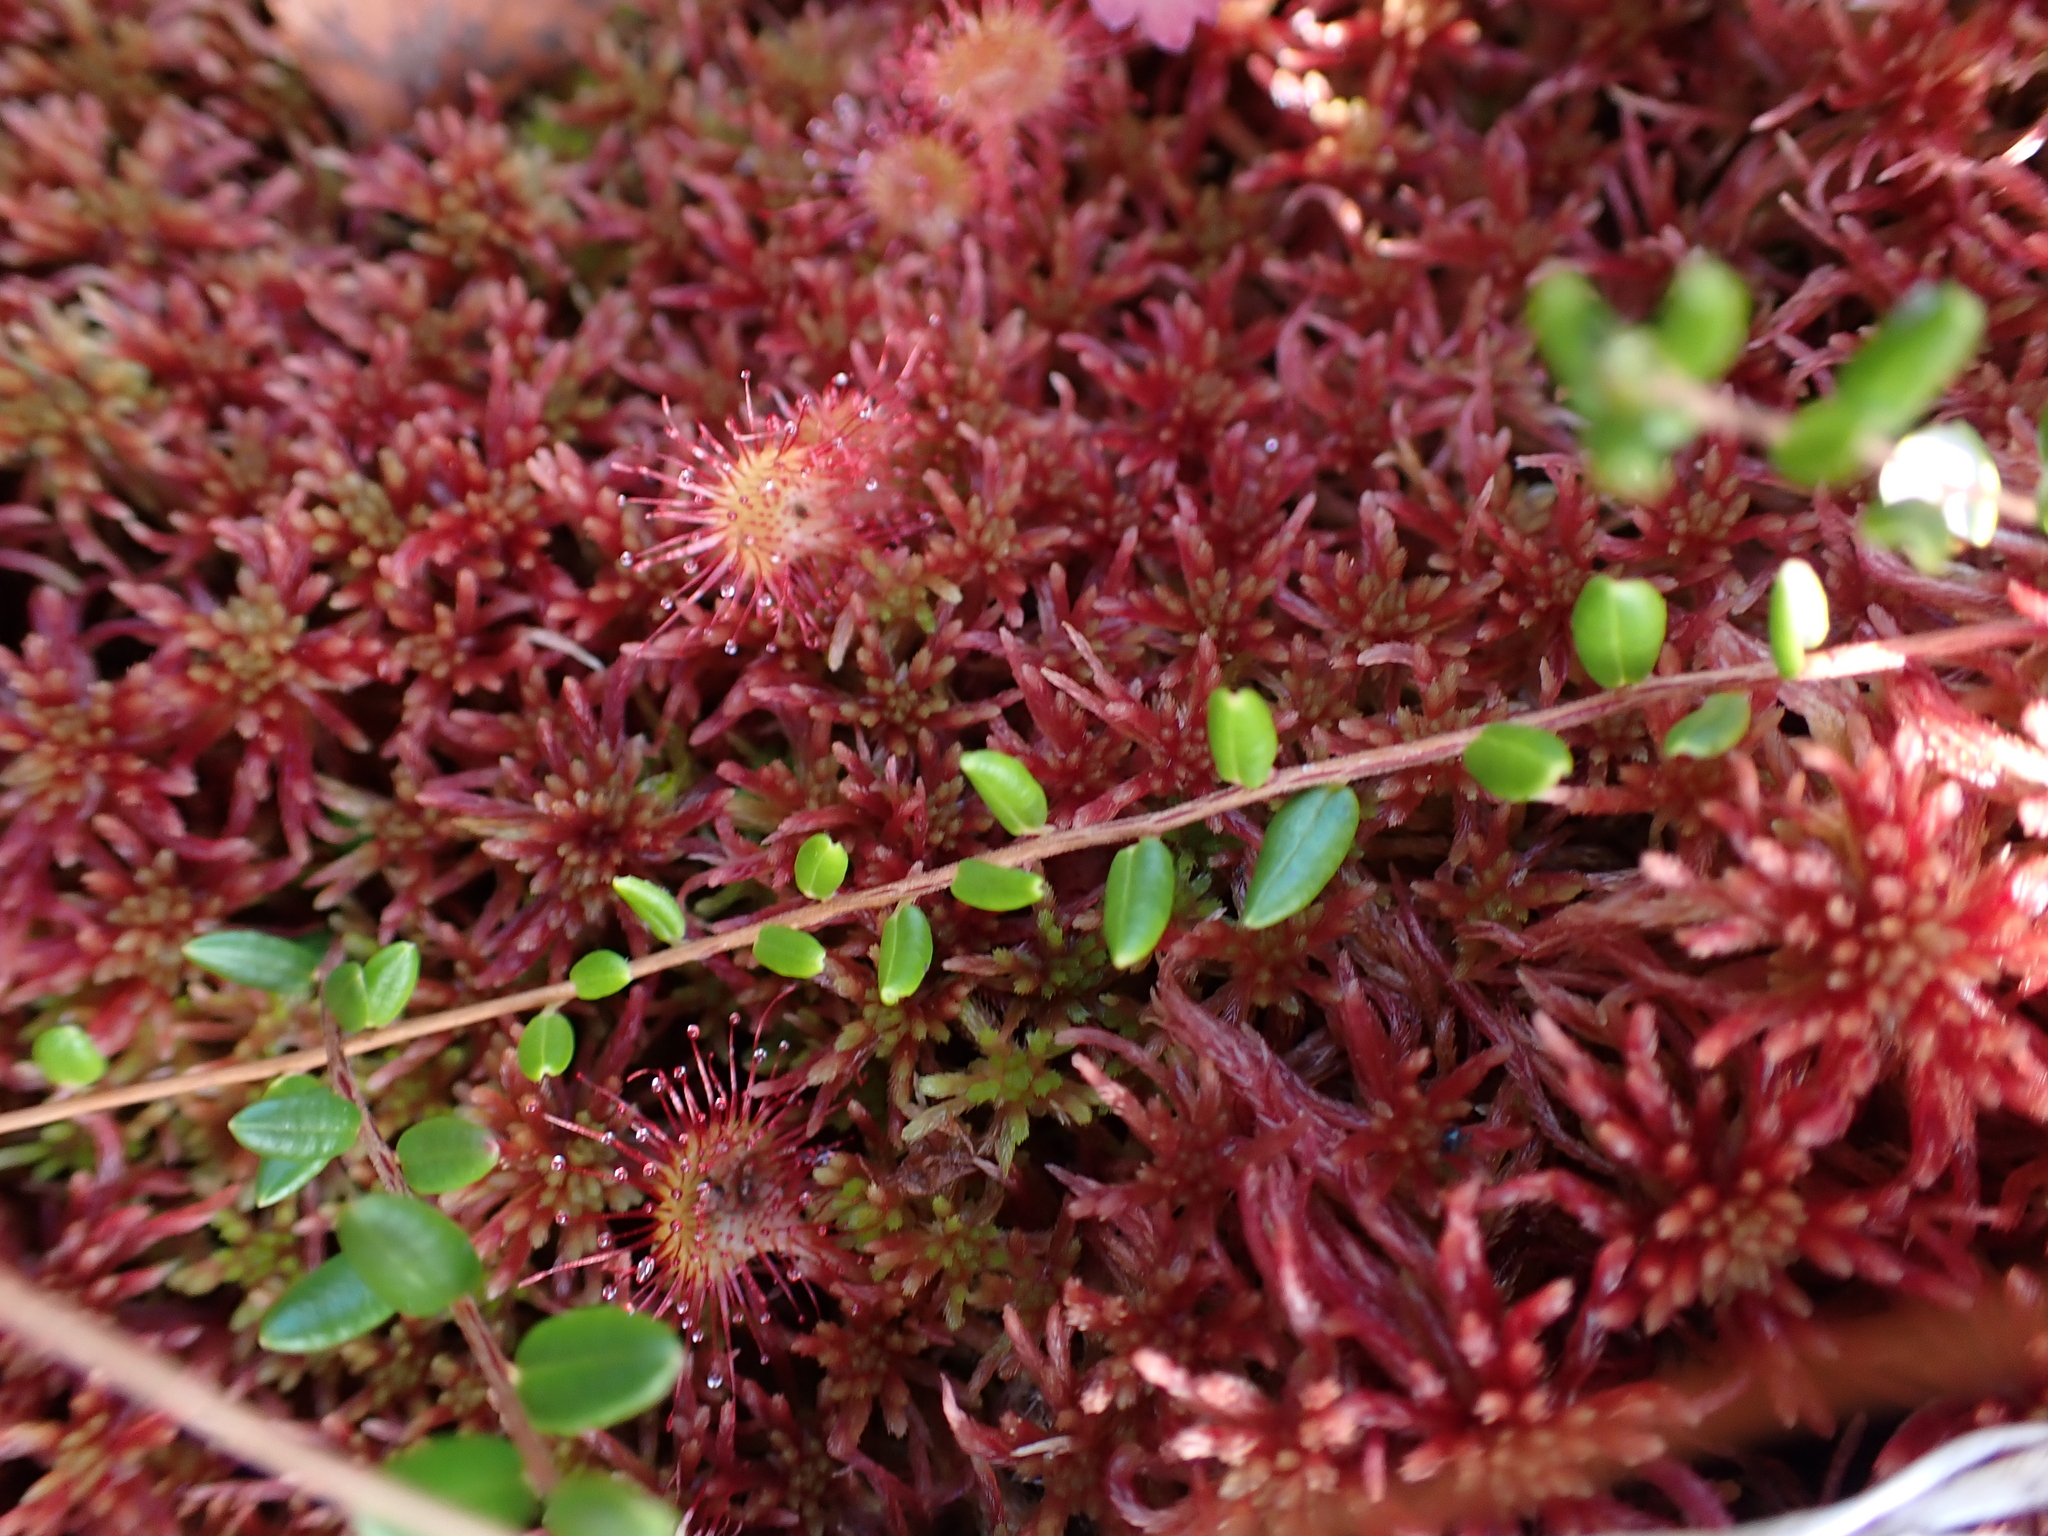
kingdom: Plantae
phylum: Tracheophyta
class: Magnoliopsida
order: Ericales
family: Ericaceae
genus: Vaccinium
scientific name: Vaccinium oxycoccos
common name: Cranberry
